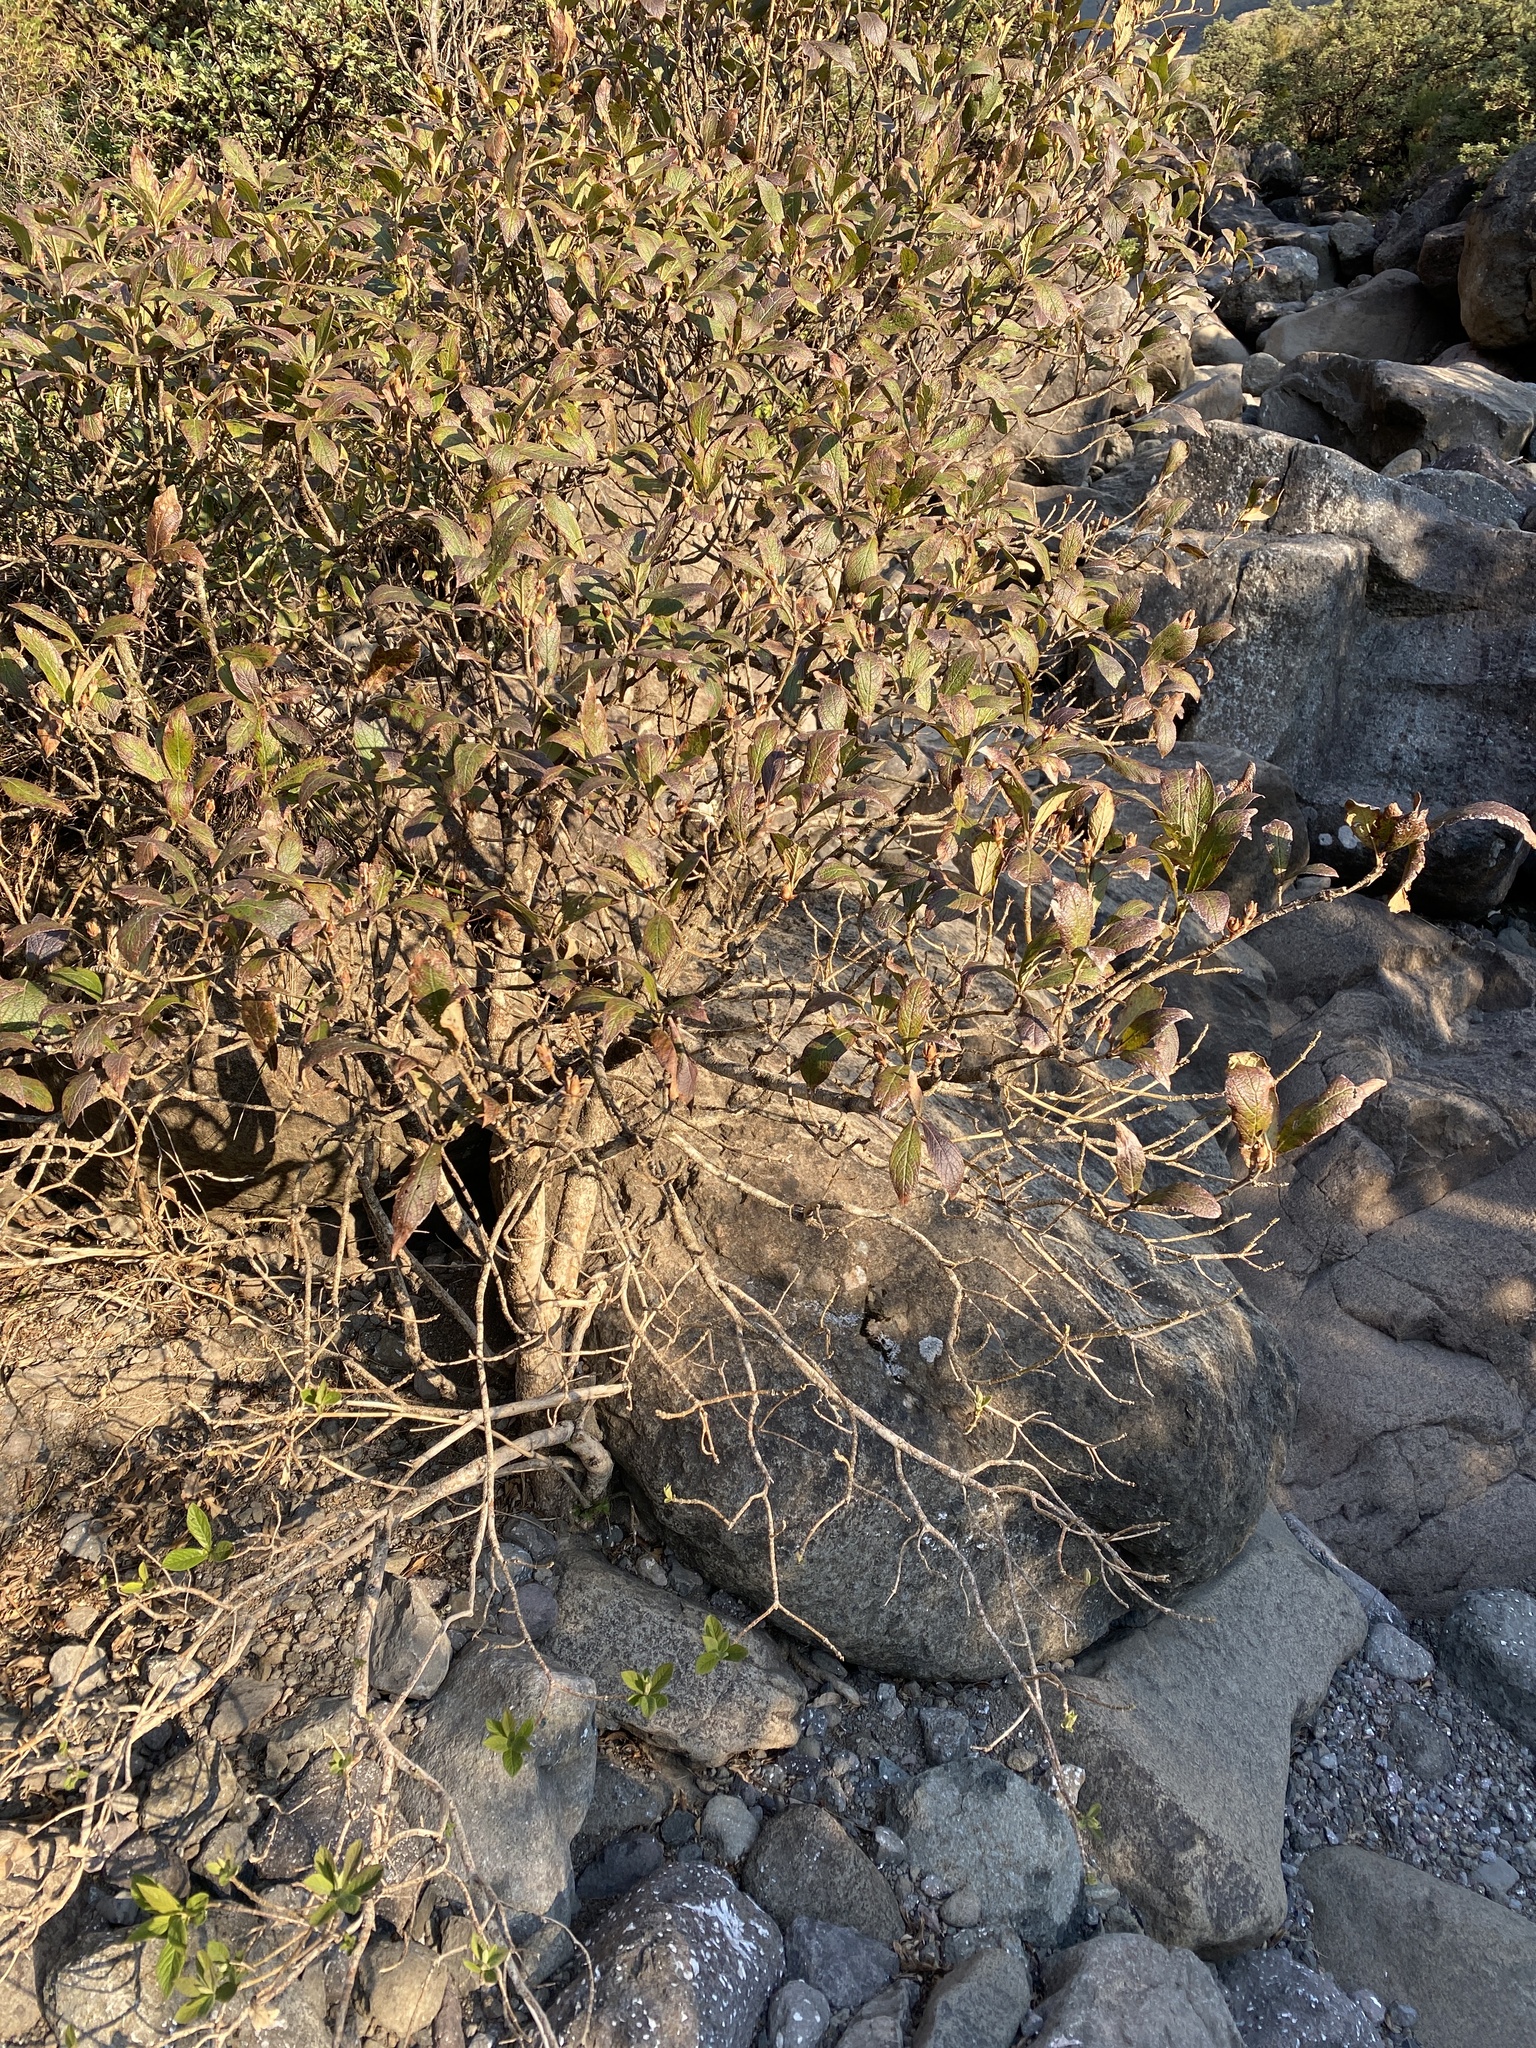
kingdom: Plantae
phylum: Tracheophyta
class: Magnoliopsida
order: Lamiales
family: Stilbaceae
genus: Bowkeria
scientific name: Bowkeria verticillata
